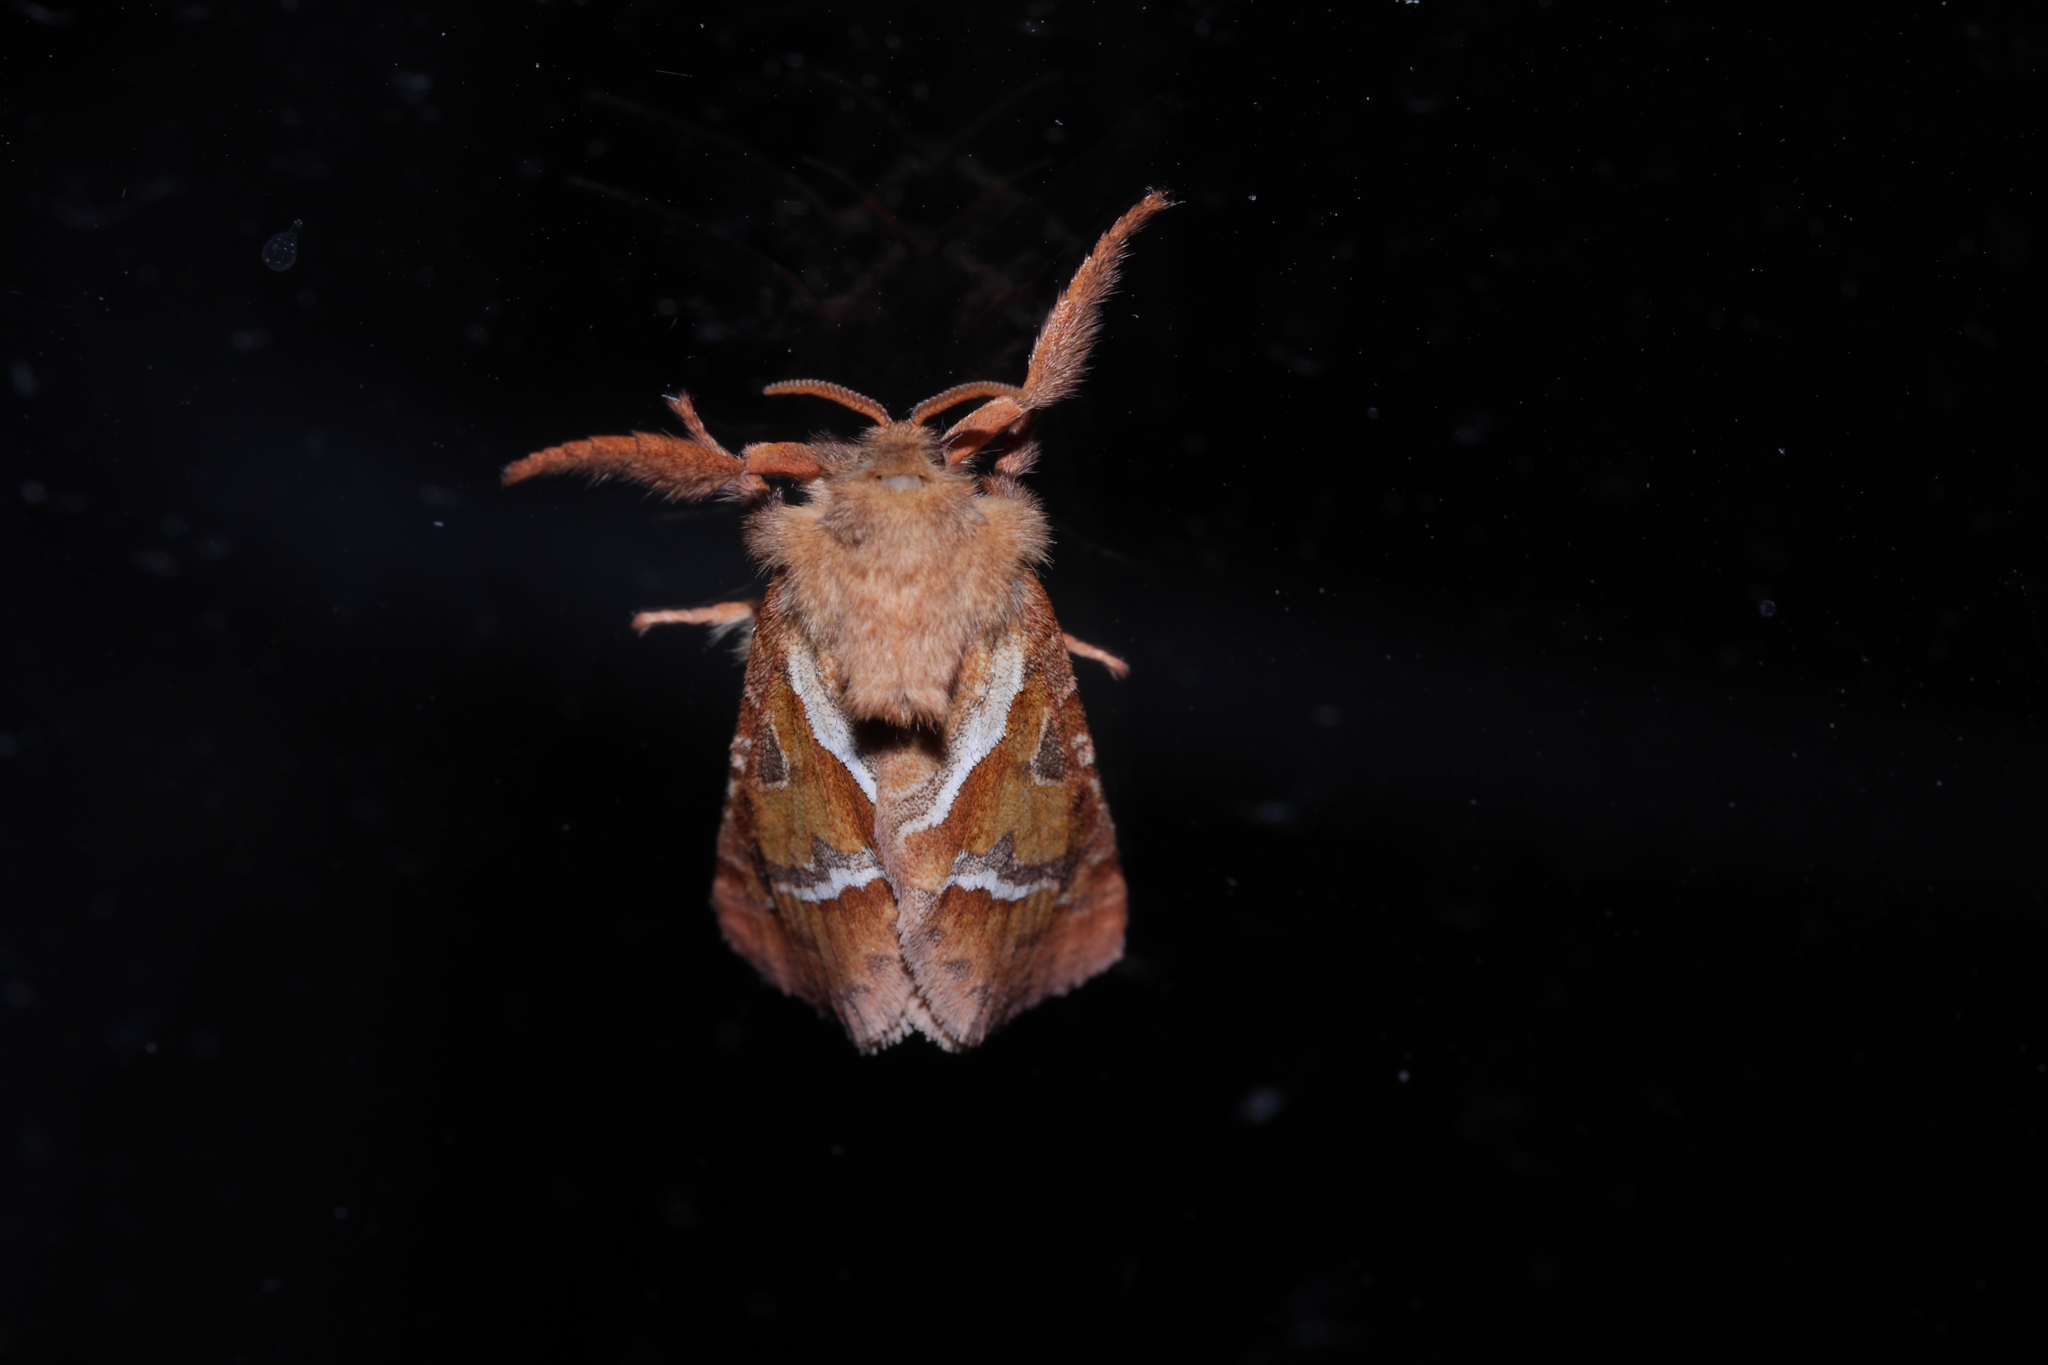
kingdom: Animalia
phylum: Arthropoda
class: Insecta
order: Lepidoptera
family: Hepialidae
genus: Triodia
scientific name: Triodia sylvina
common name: Orange swift
